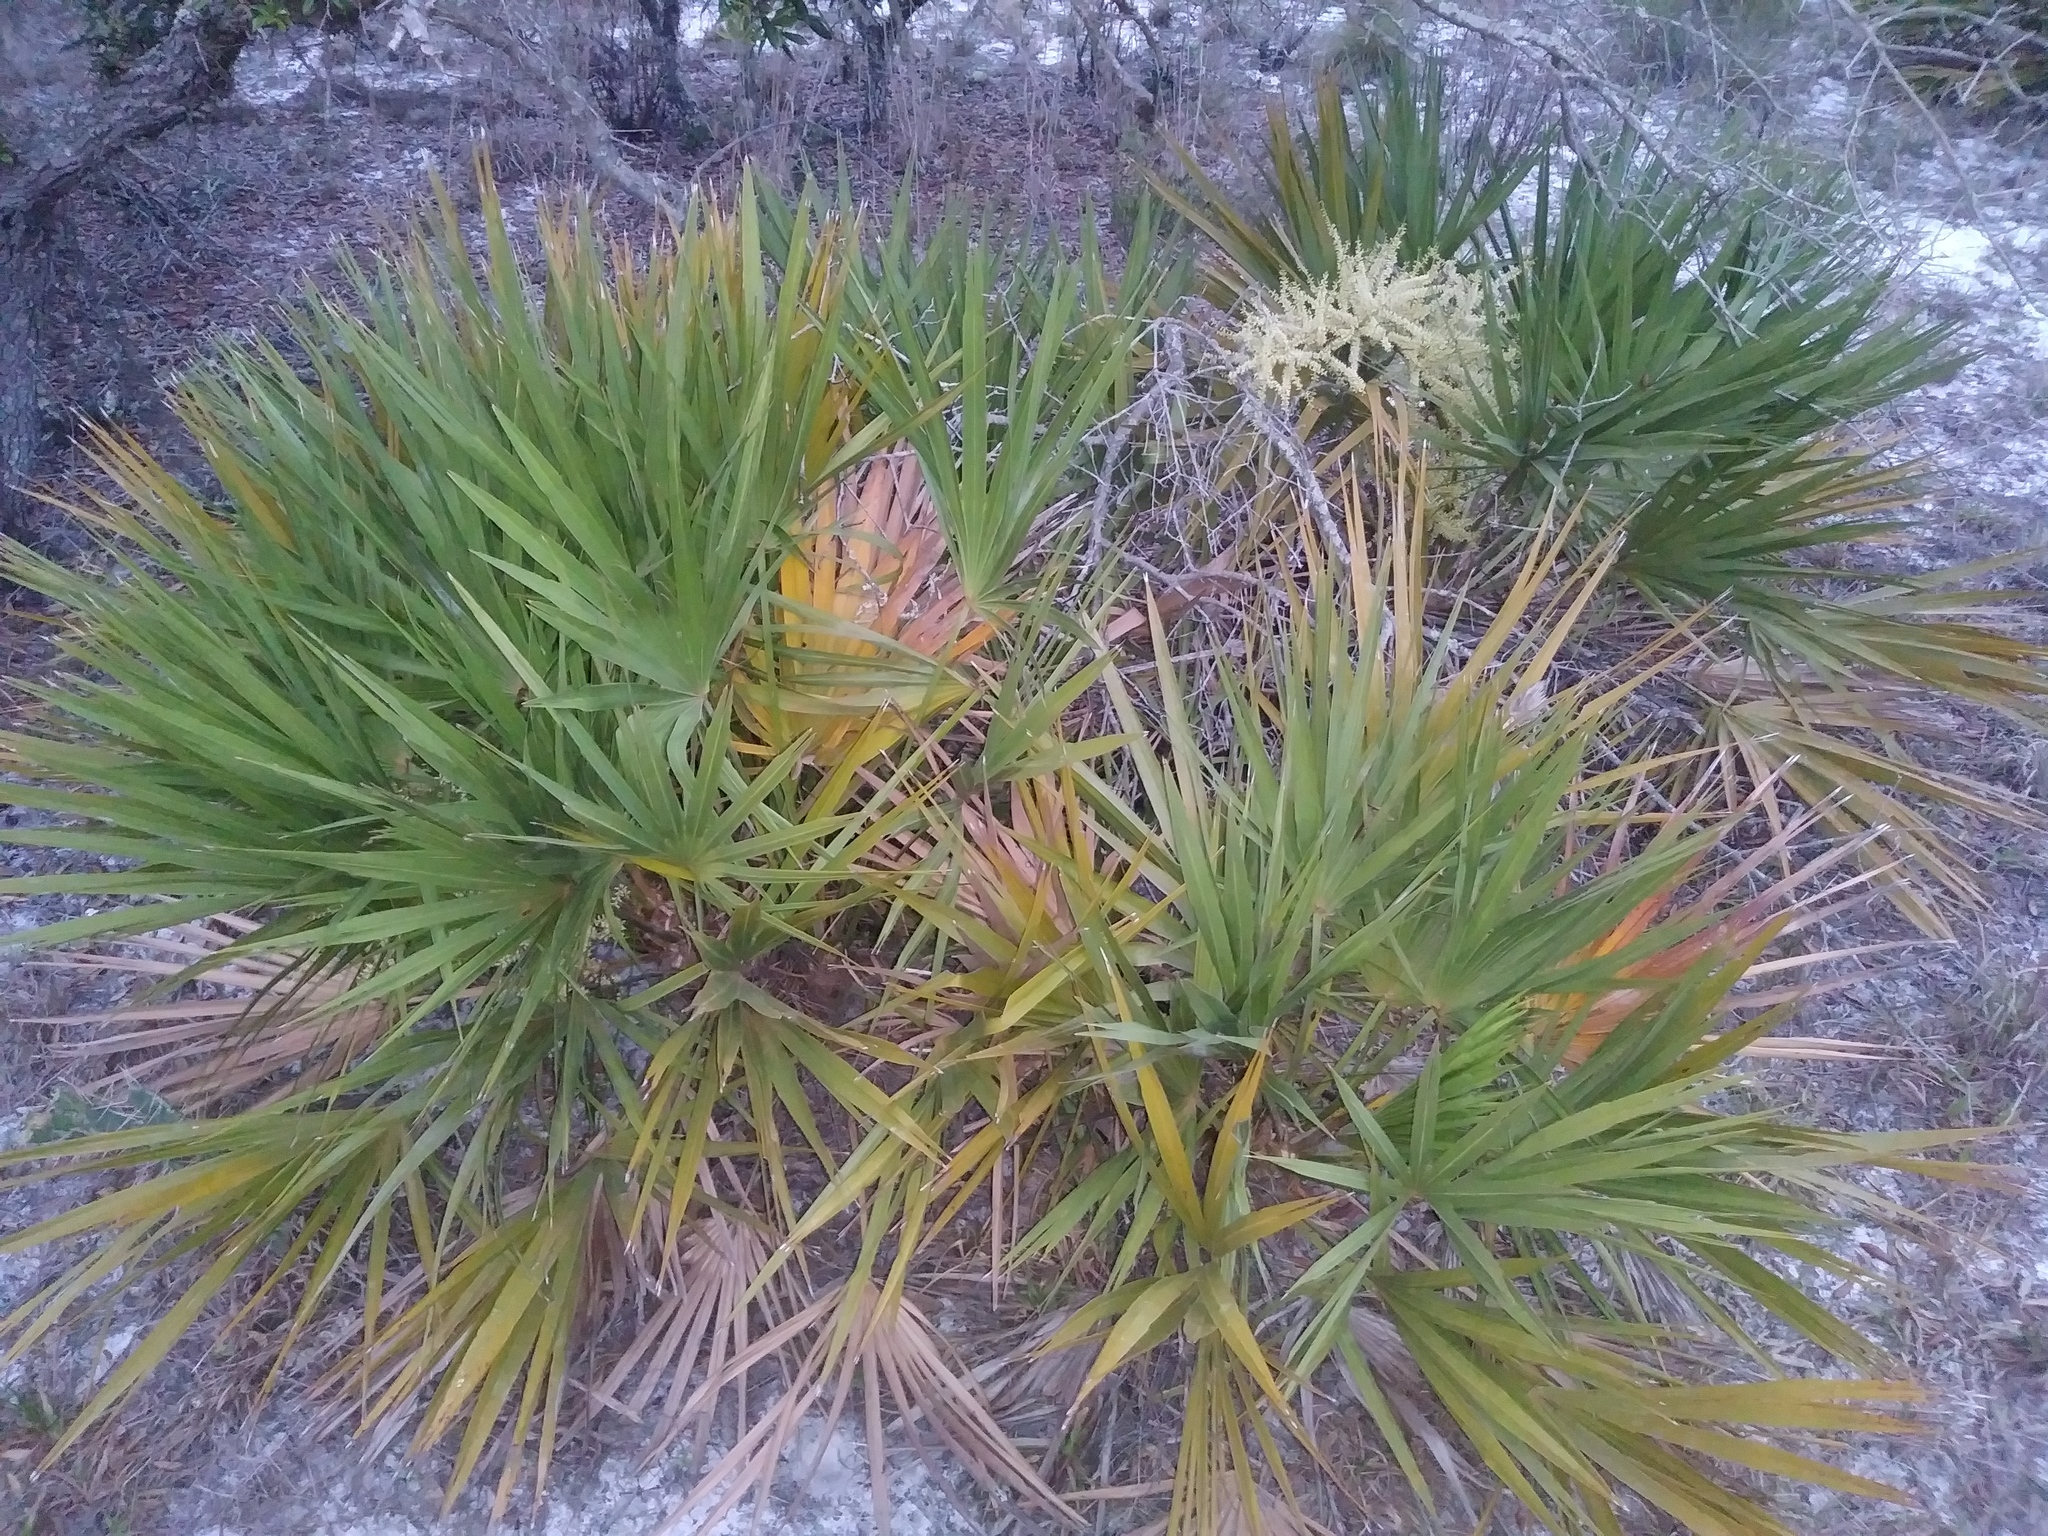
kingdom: Plantae
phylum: Tracheophyta
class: Liliopsida
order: Arecales
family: Arecaceae
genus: Serenoa
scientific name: Serenoa repens
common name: Saw-palmetto
